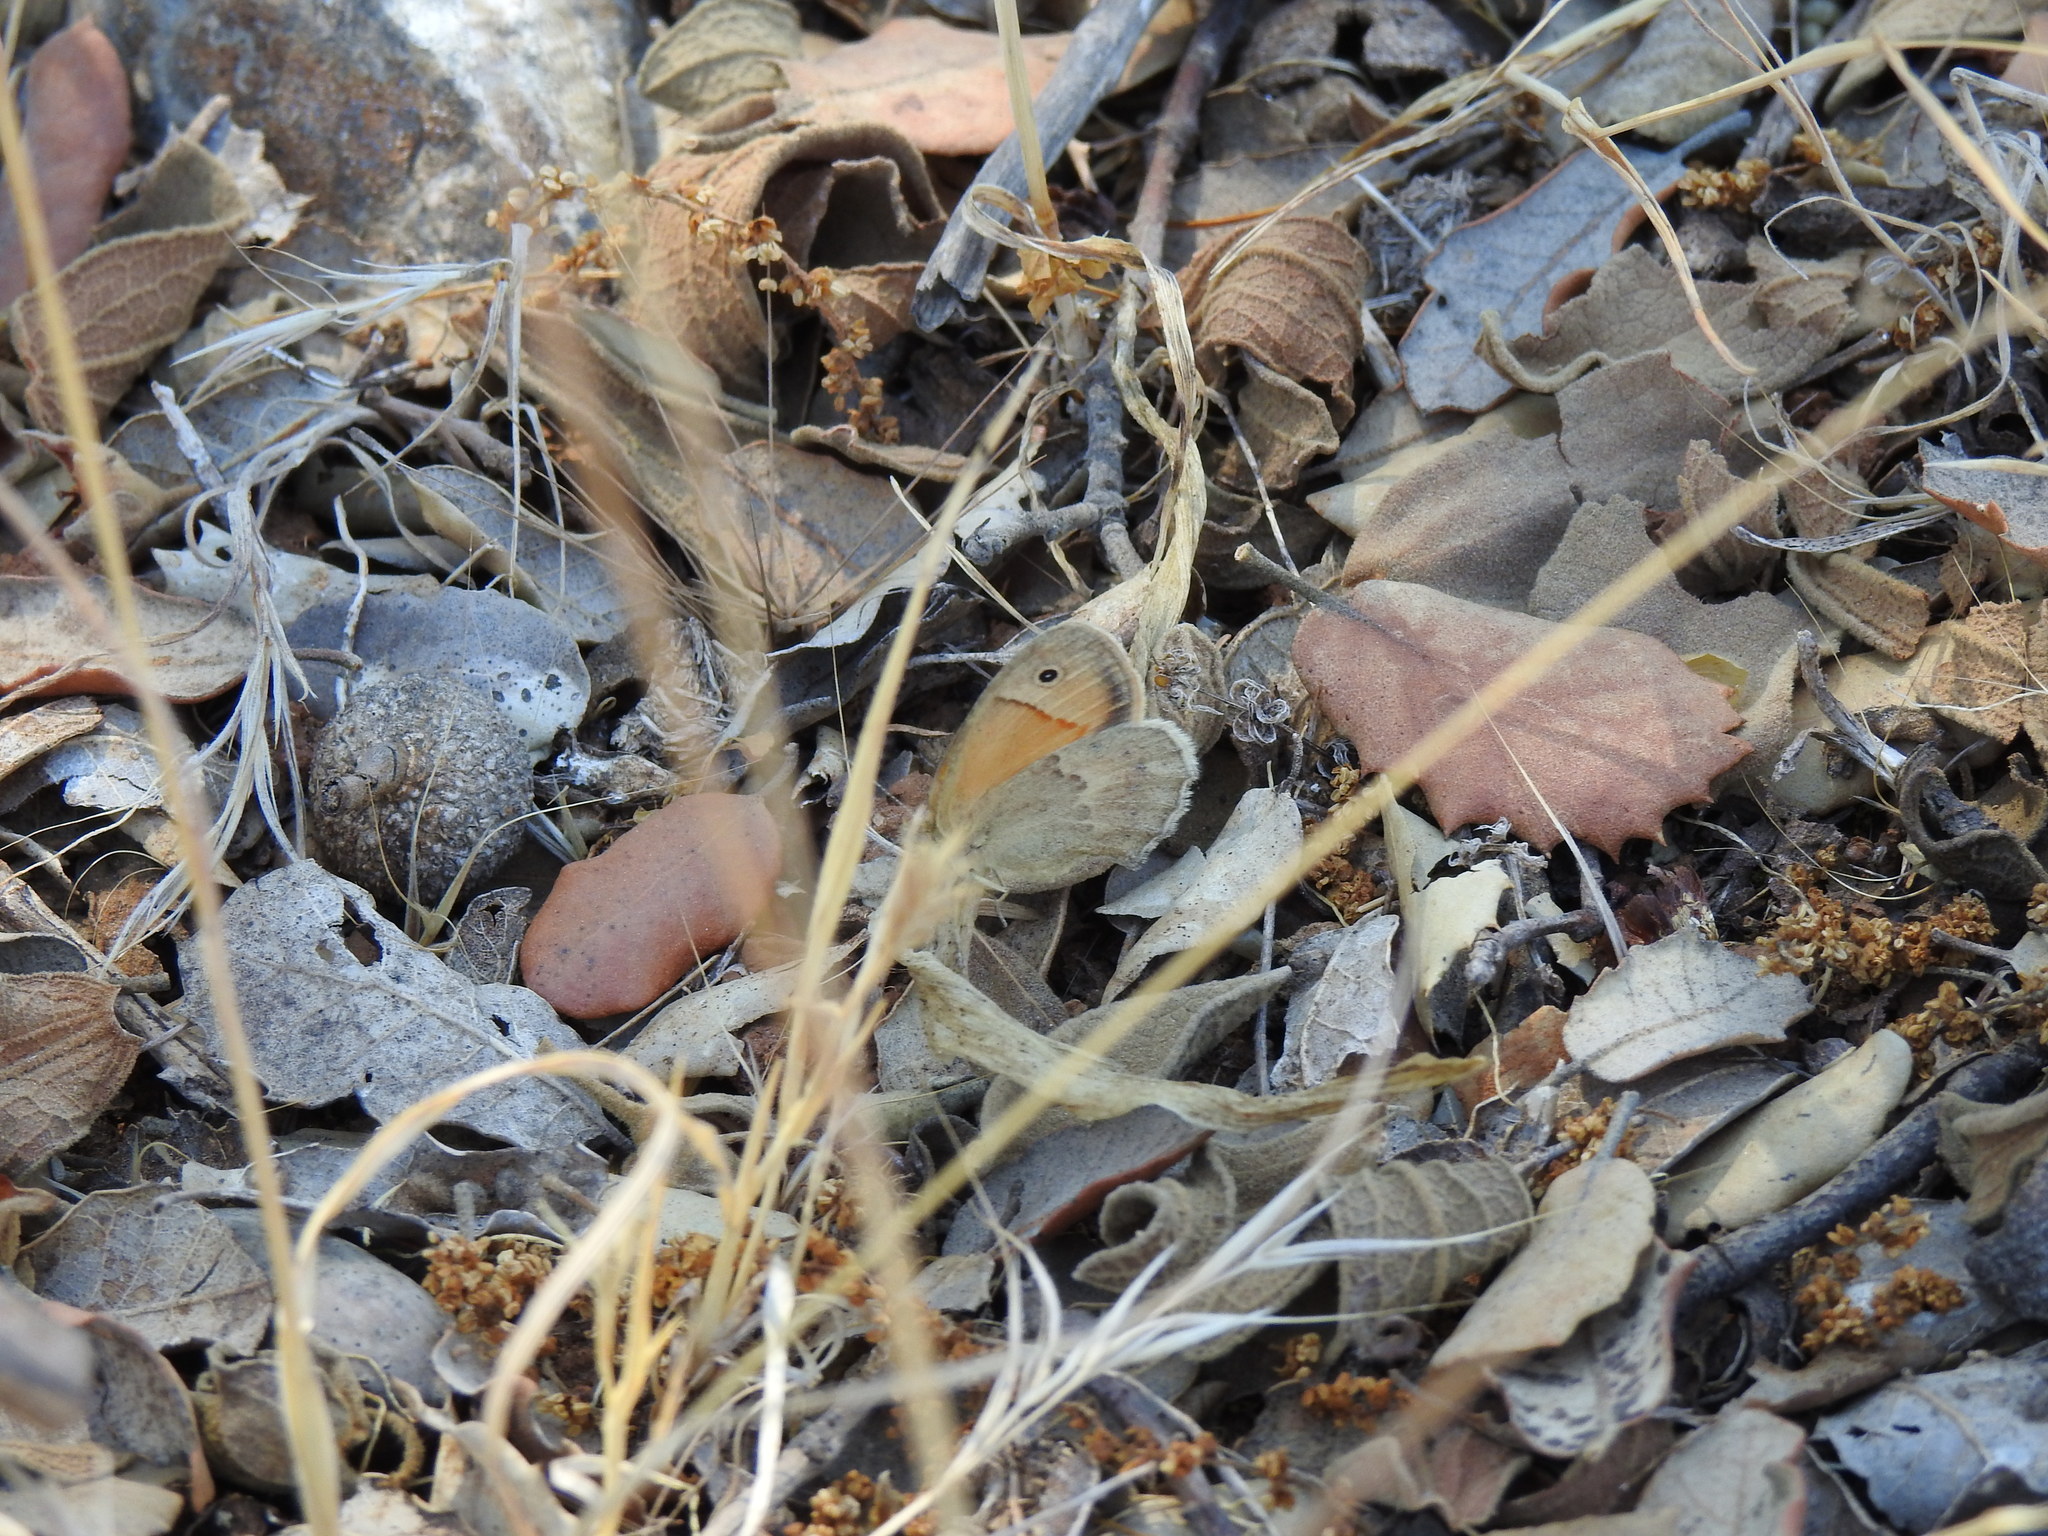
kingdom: Animalia
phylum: Arthropoda
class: Insecta
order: Lepidoptera
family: Nymphalidae
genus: Coenonympha
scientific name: Coenonympha pamphilus
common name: Small heath
